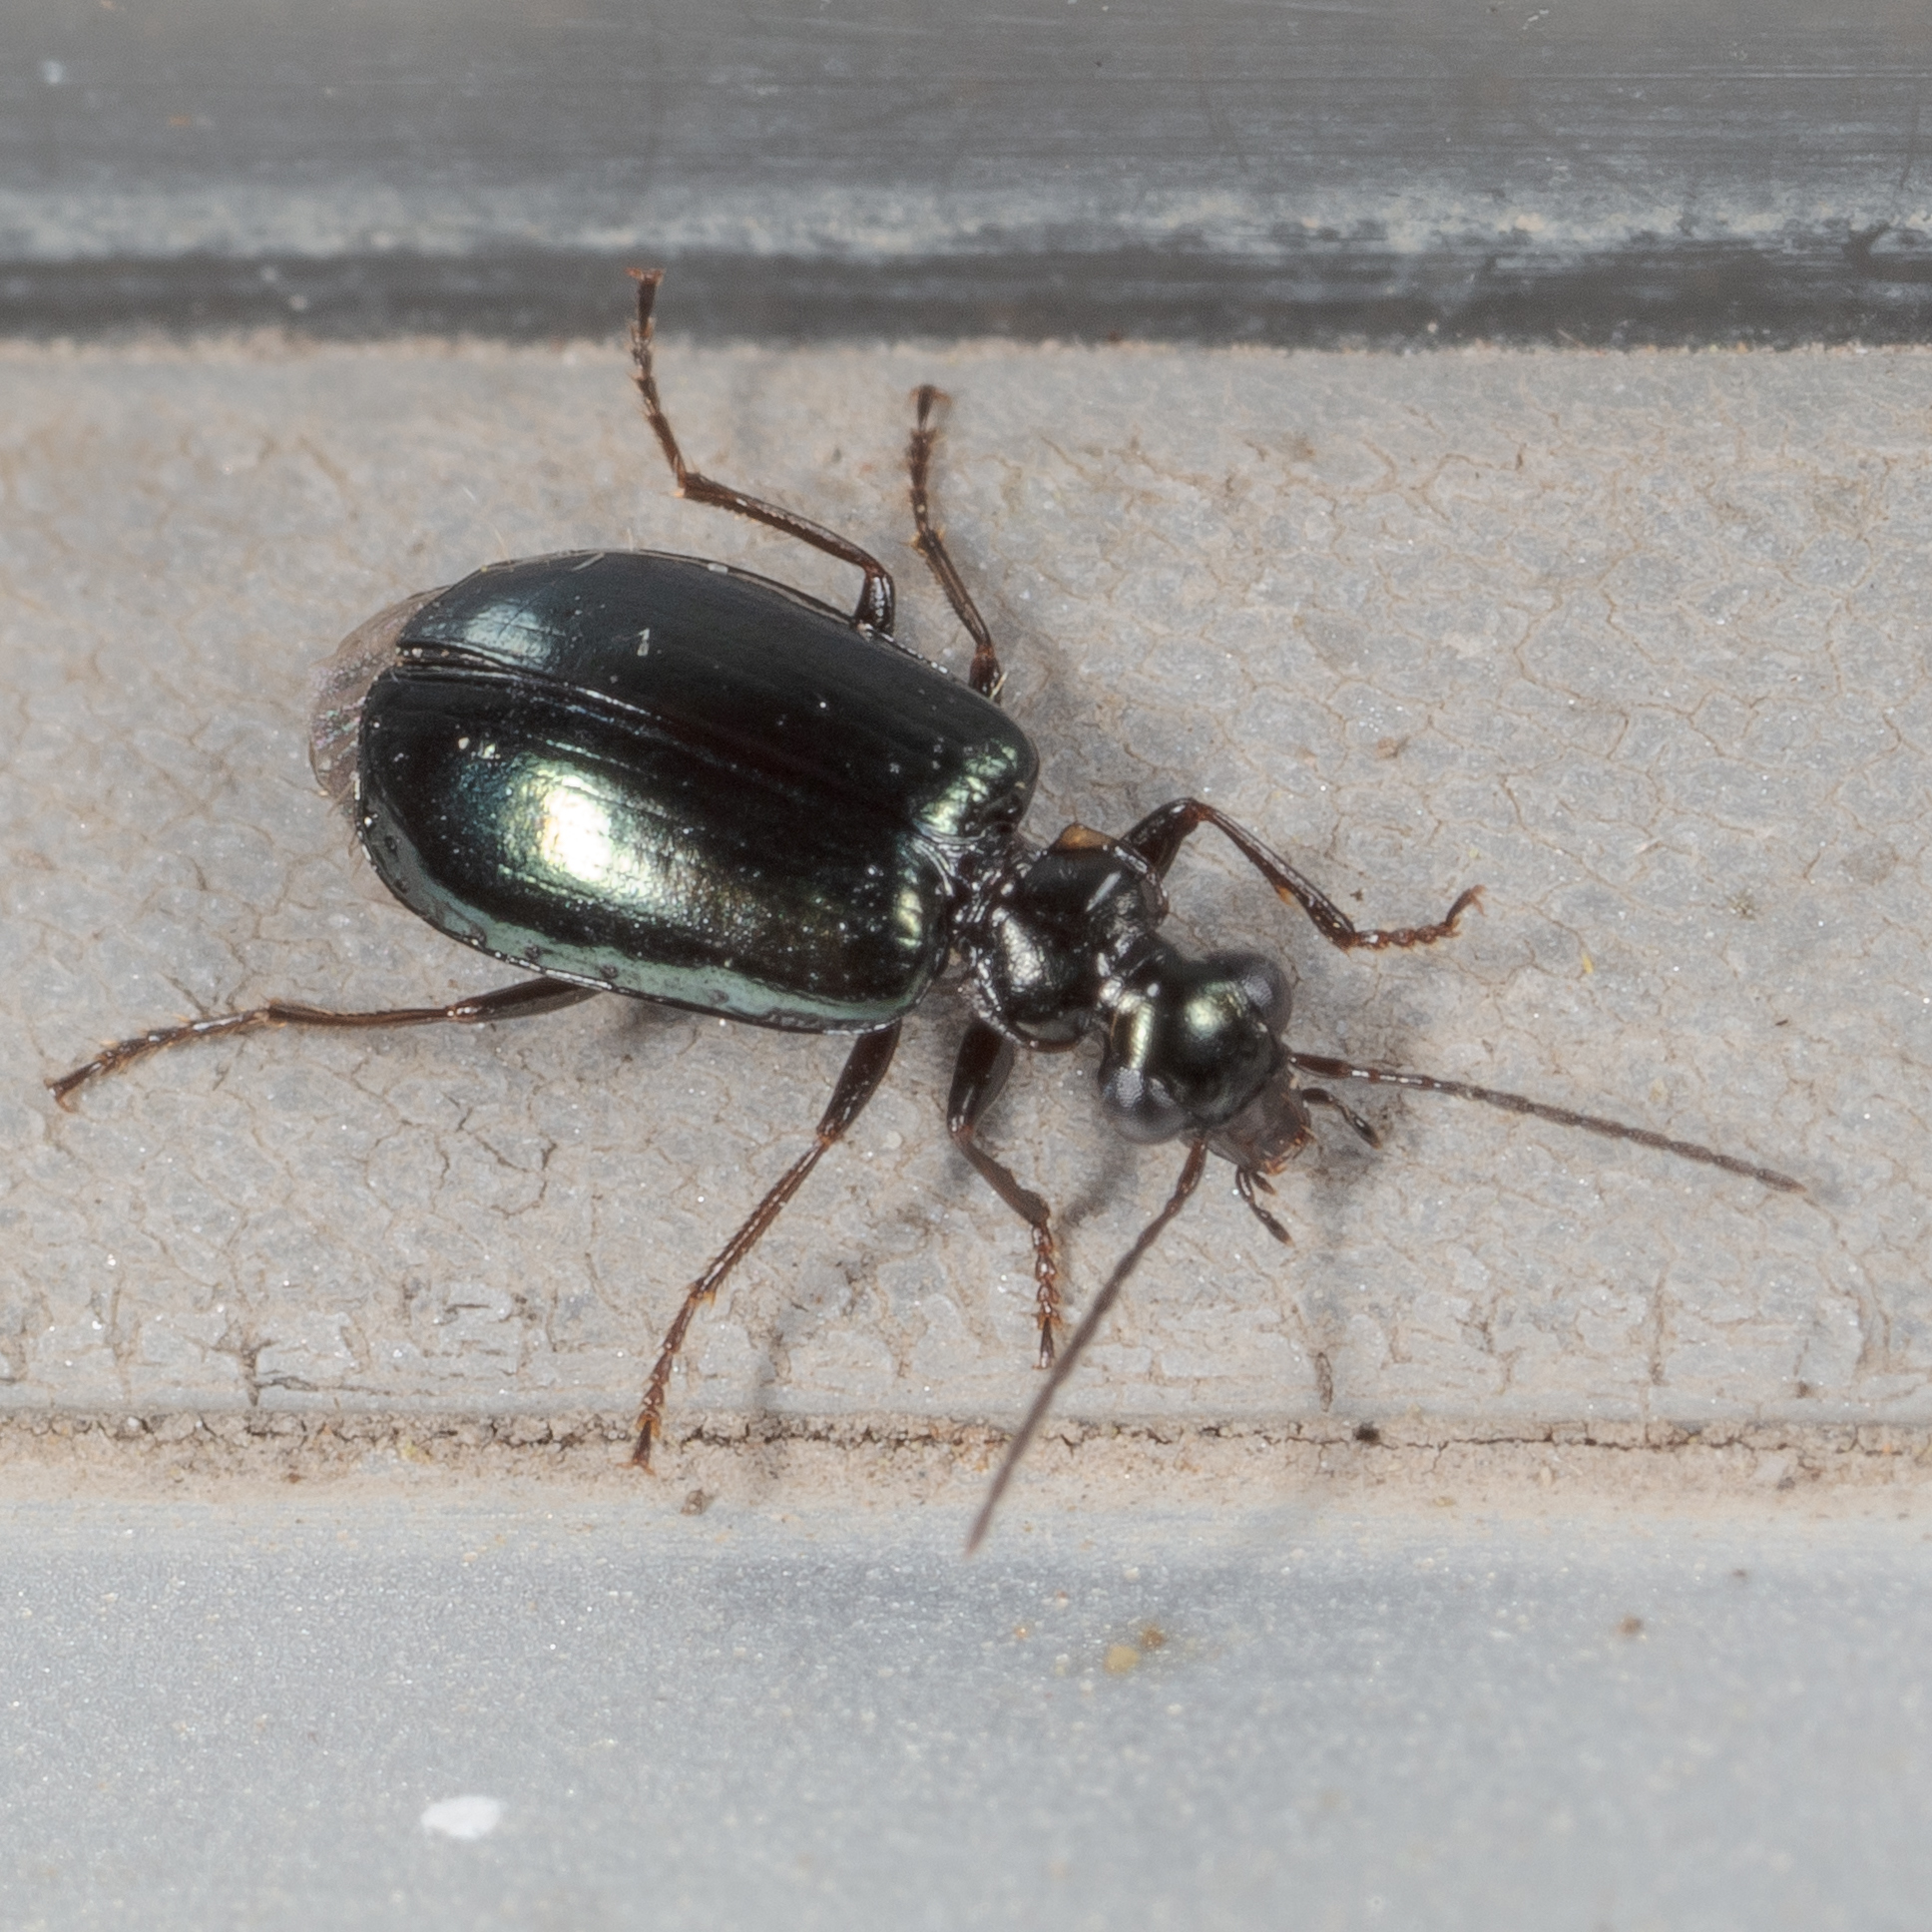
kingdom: Animalia
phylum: Arthropoda
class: Insecta
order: Coleoptera
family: Carabidae
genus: Lebia
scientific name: Lebia viridis
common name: Flower lebia beetle
